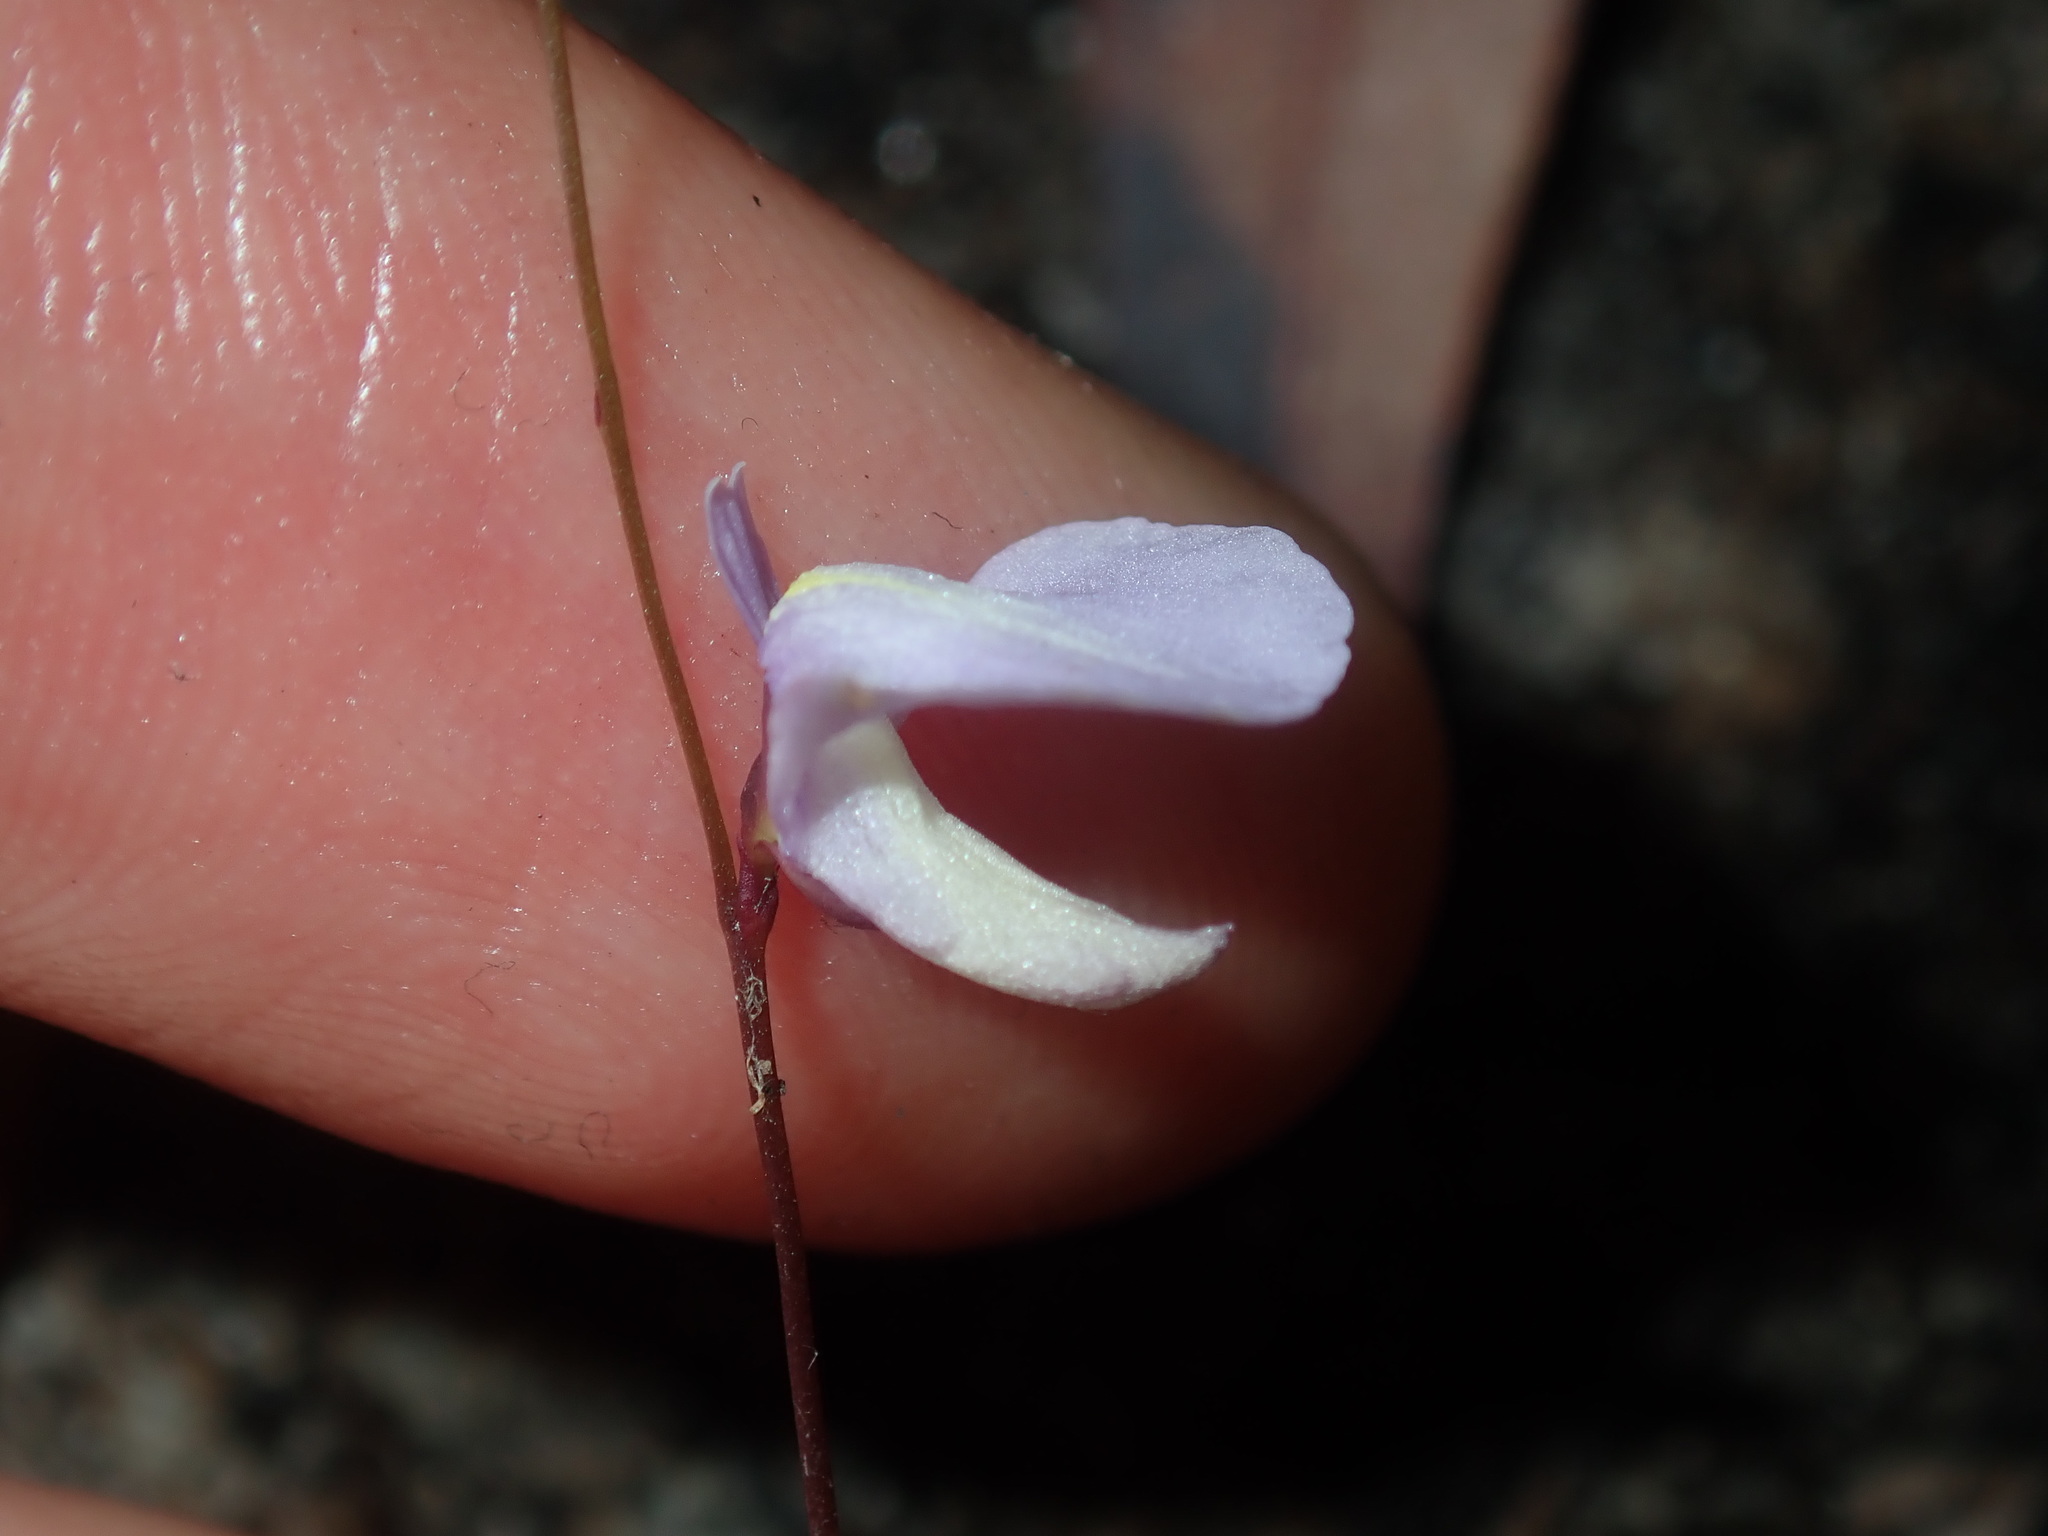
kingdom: Plantae
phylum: Tracheophyta
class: Magnoliopsida
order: Lamiales
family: Lentibulariaceae
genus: Utricularia
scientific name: Utricularia lateriflora
